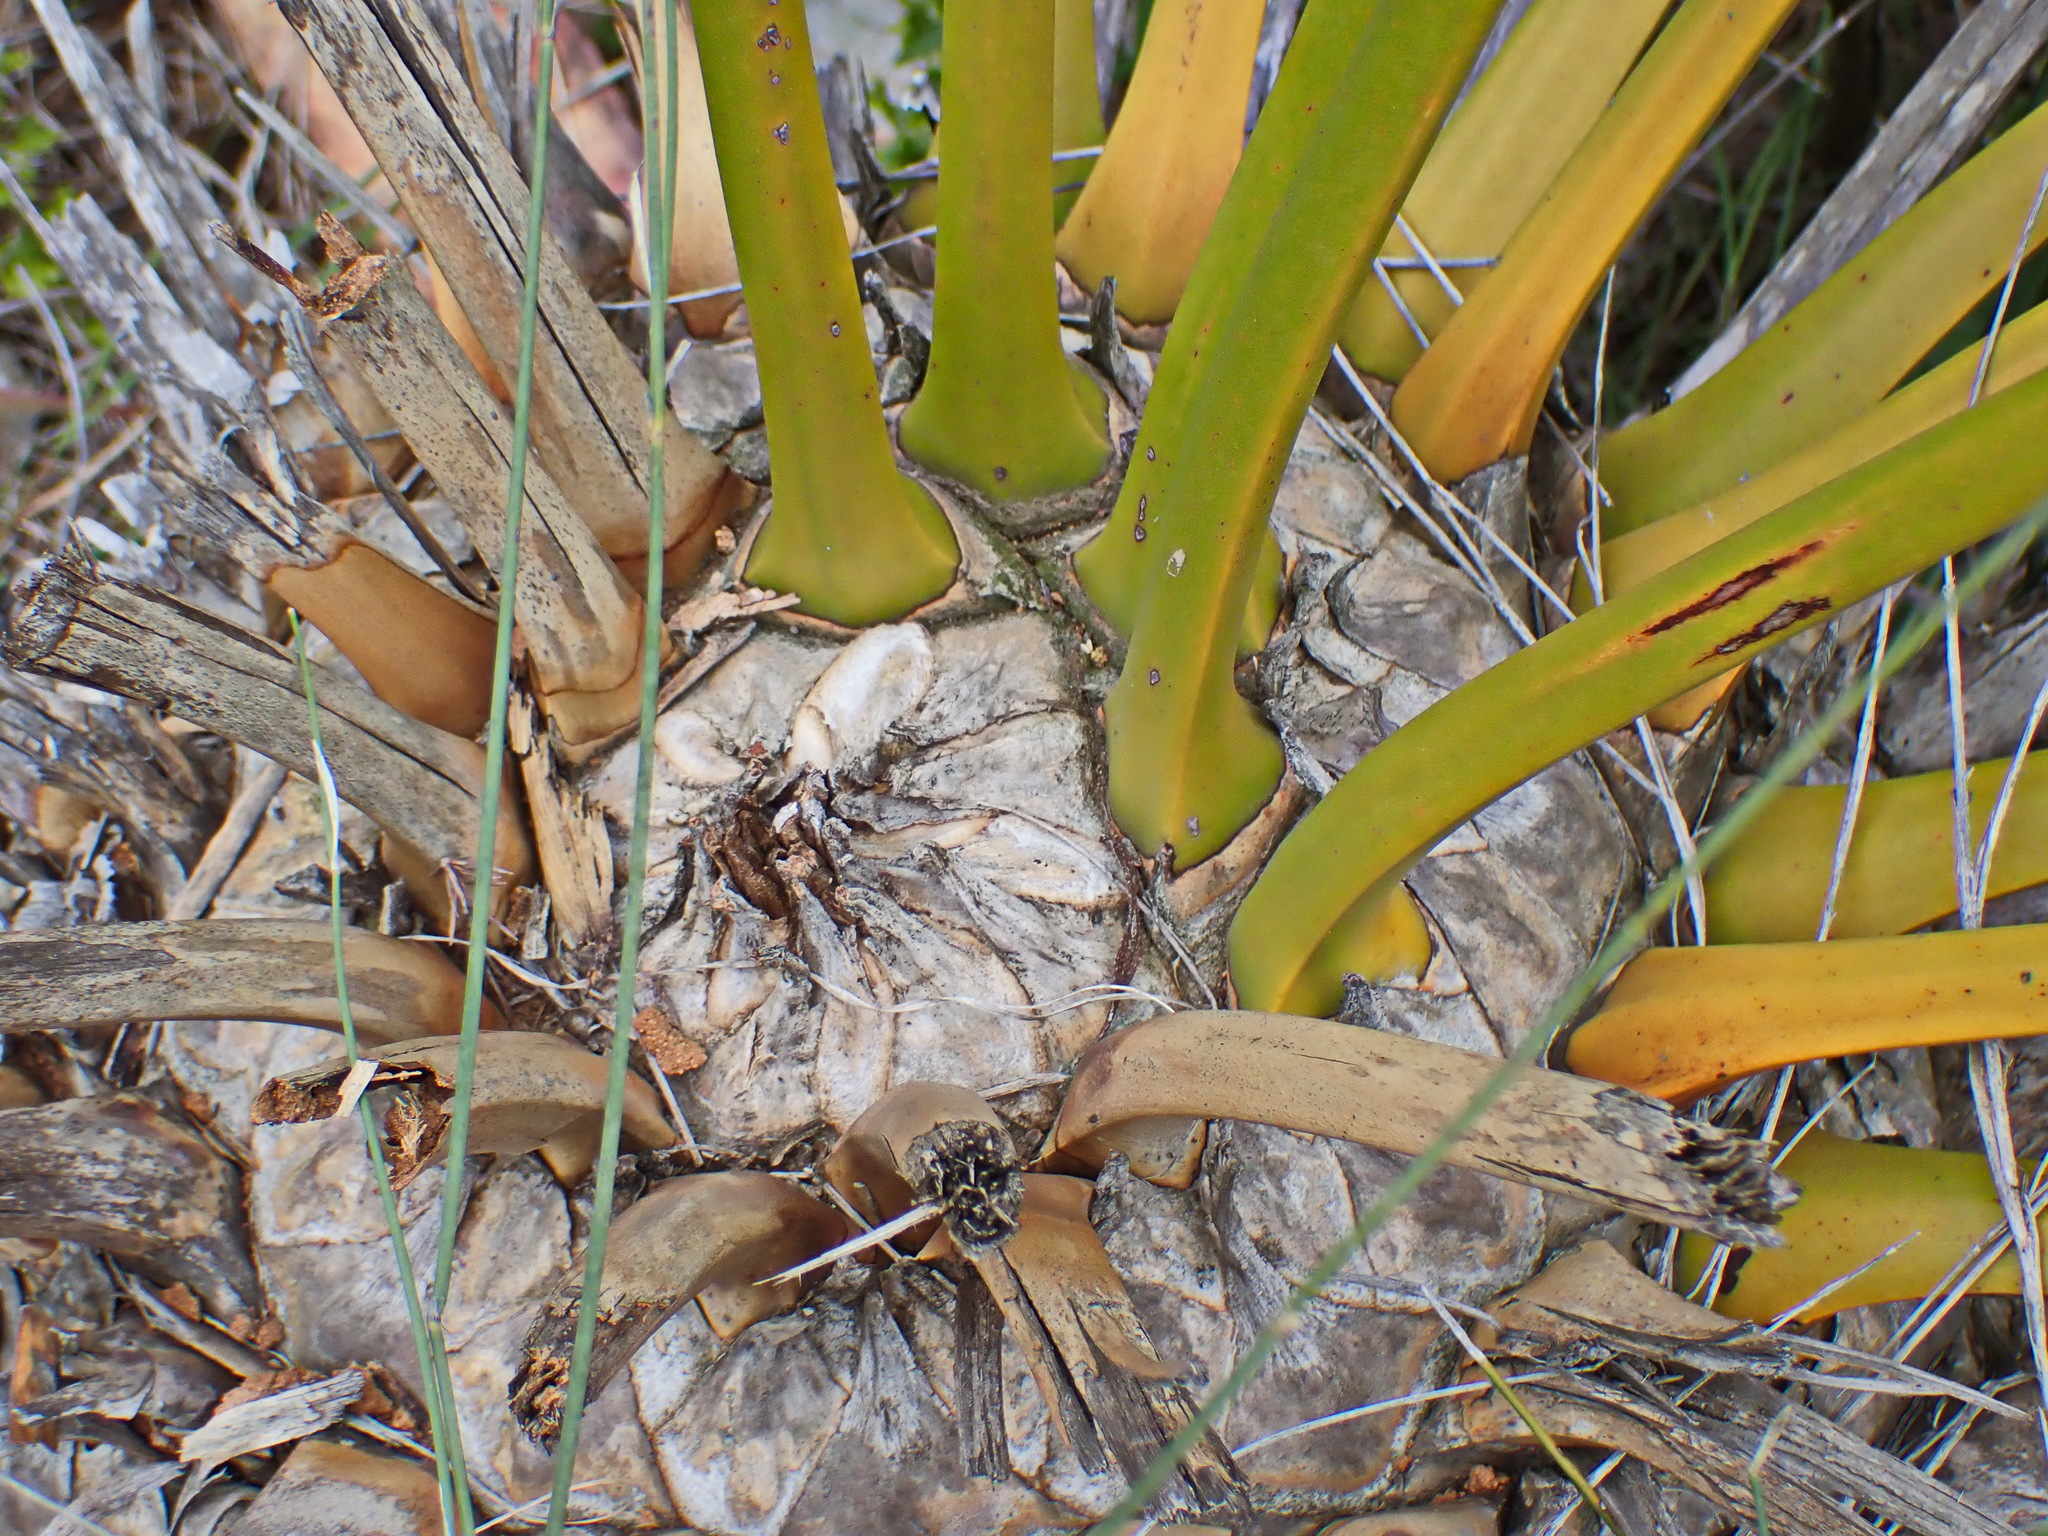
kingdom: Plantae
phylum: Tracheophyta
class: Cycadopsida
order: Cycadales
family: Zamiaceae
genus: Encephalartos
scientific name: Encephalartos longifolius
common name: Suurberg cycad
